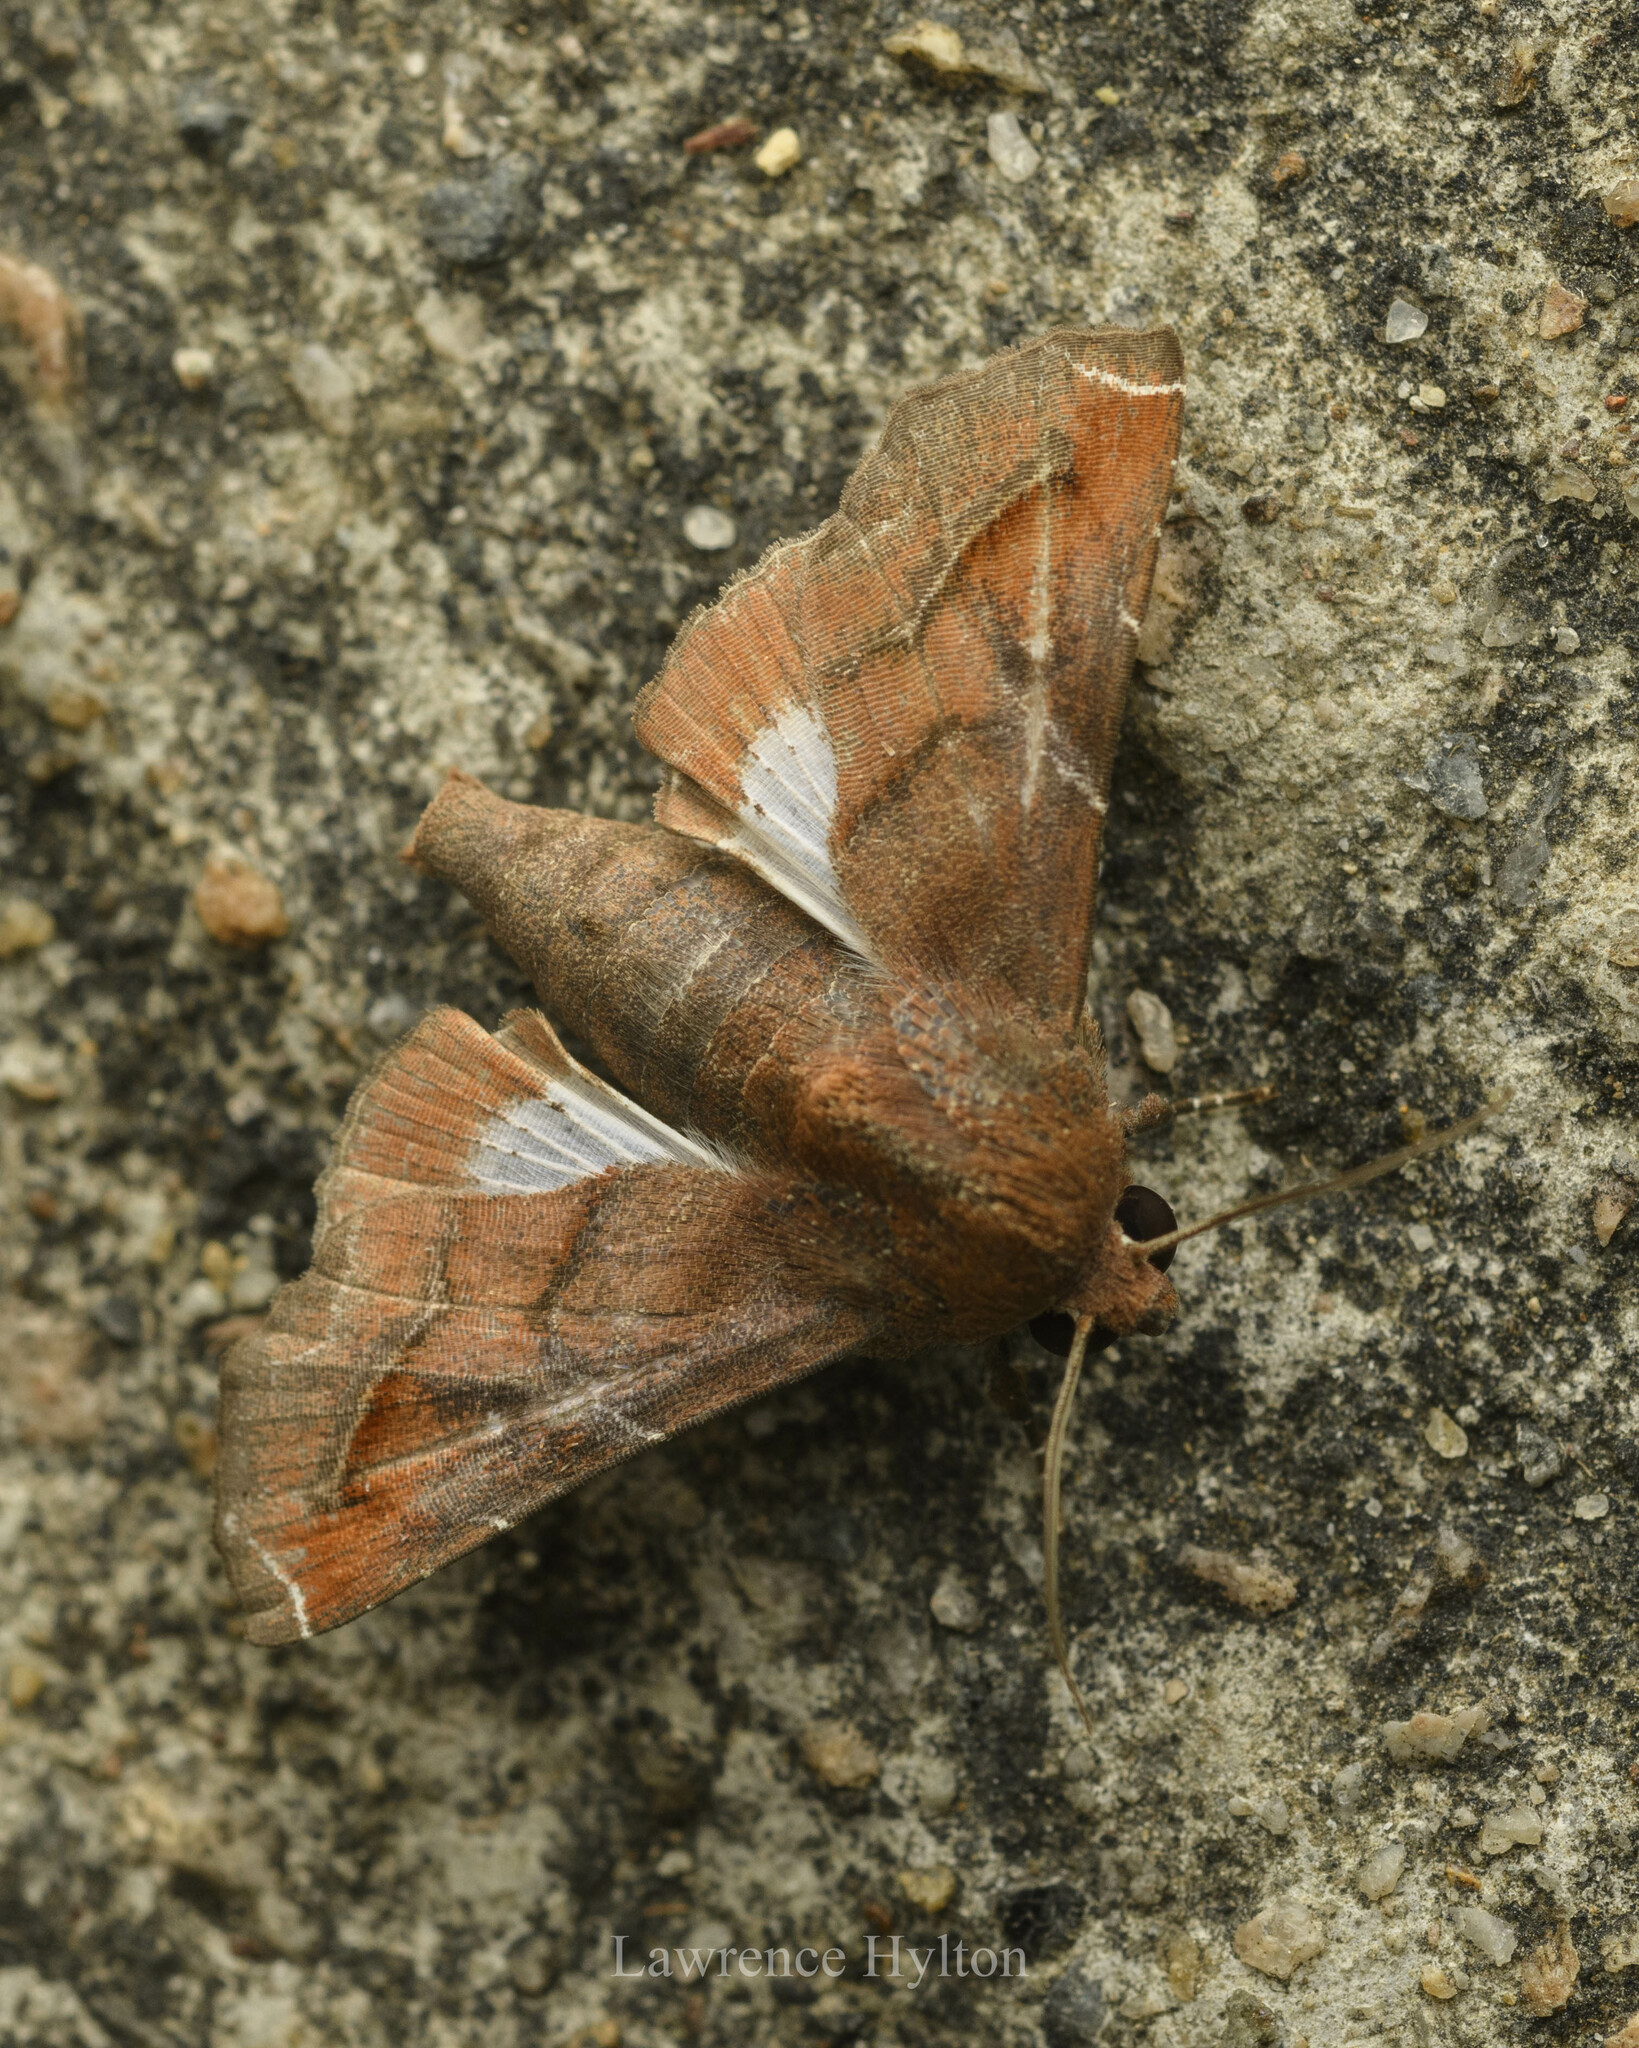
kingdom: Animalia
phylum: Arthropoda
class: Insecta
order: Lepidoptera
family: Euteliidae
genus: Penicillaria
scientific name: Penicillaria jocosatrix
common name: Mango shoot borer
